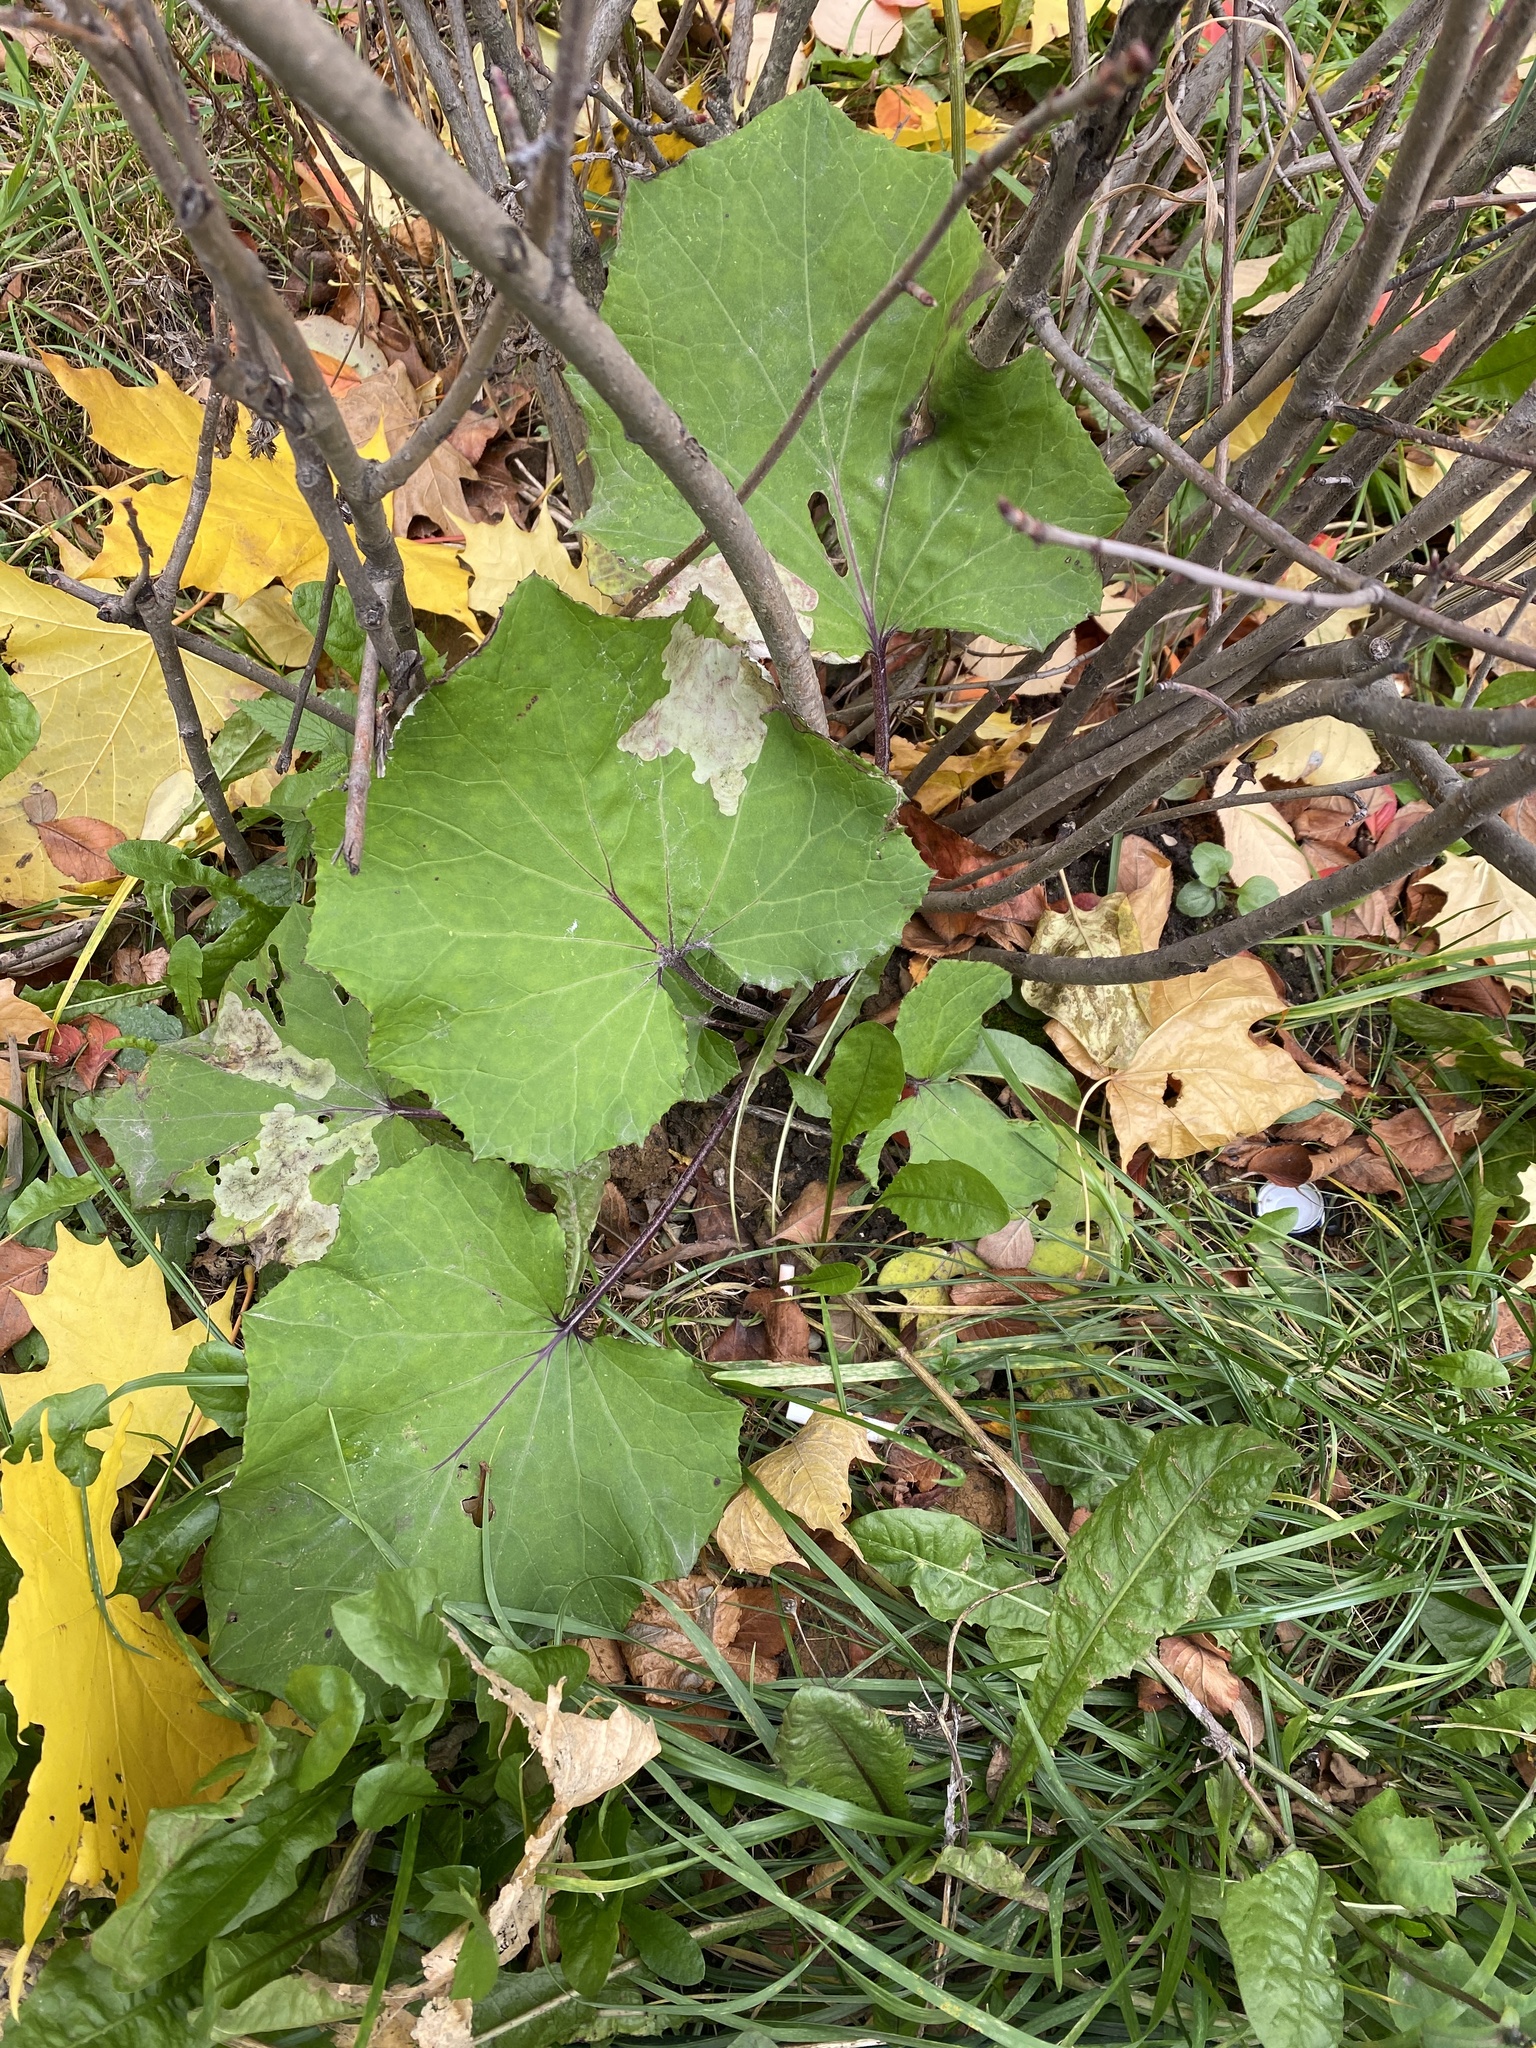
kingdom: Plantae
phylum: Tracheophyta
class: Magnoliopsida
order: Asterales
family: Asteraceae
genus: Tussilago
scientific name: Tussilago farfara
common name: Coltsfoot
